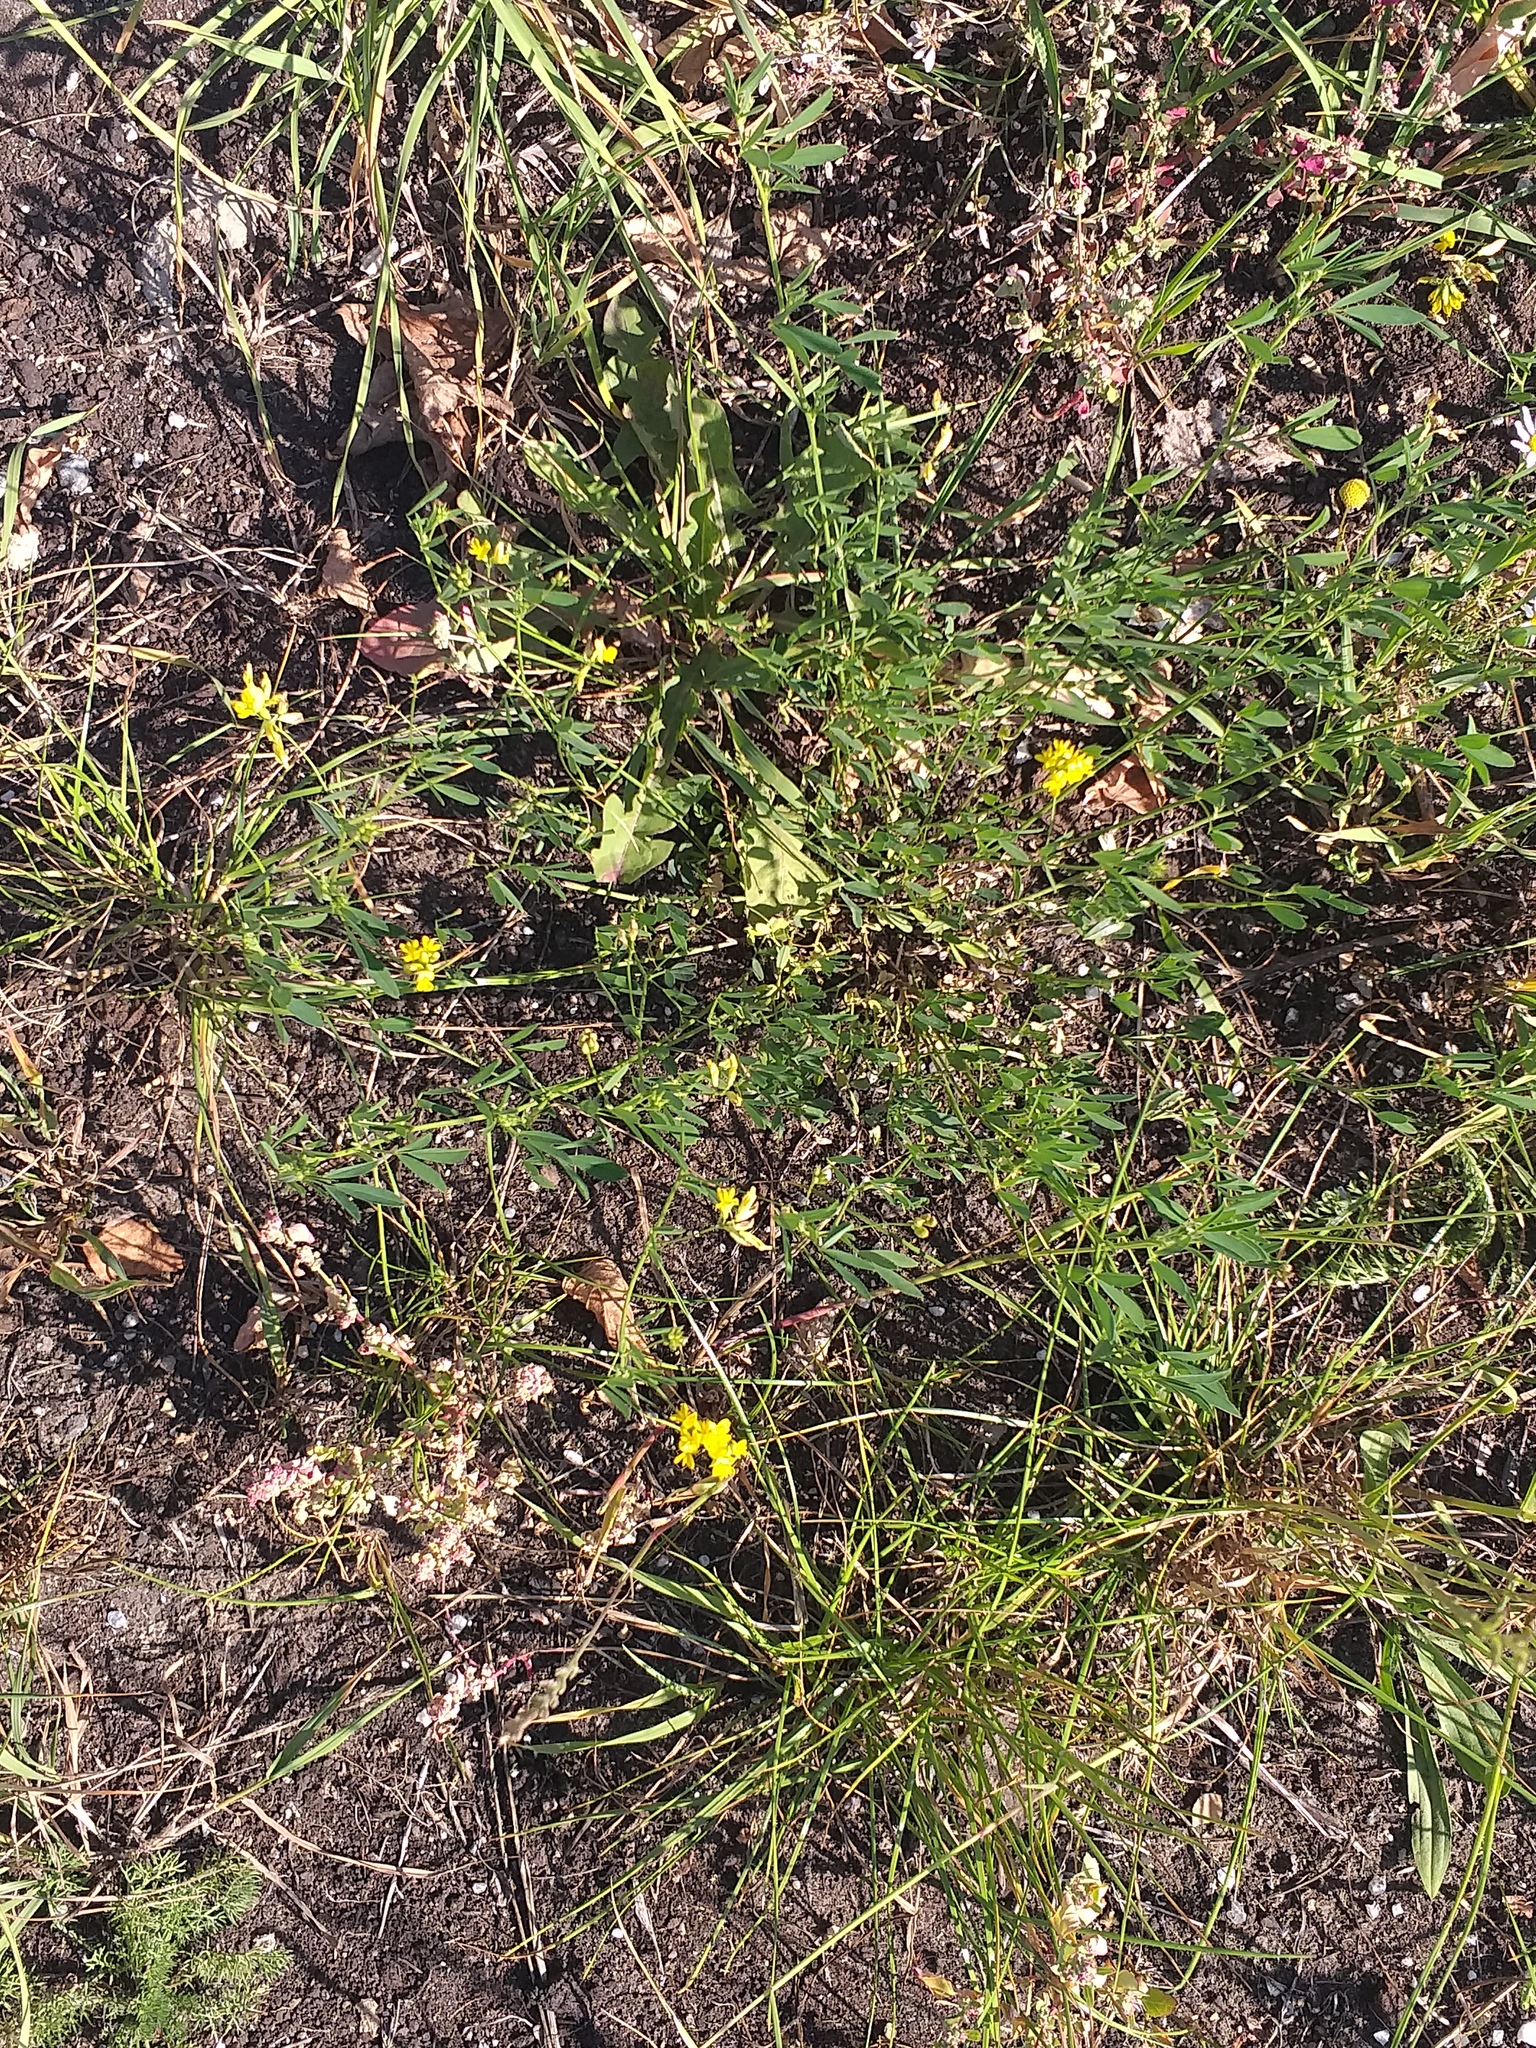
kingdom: Plantae
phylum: Tracheophyta
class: Magnoliopsida
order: Fabales
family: Fabaceae
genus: Medicago
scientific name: Medicago falcata
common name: Sickle medick
